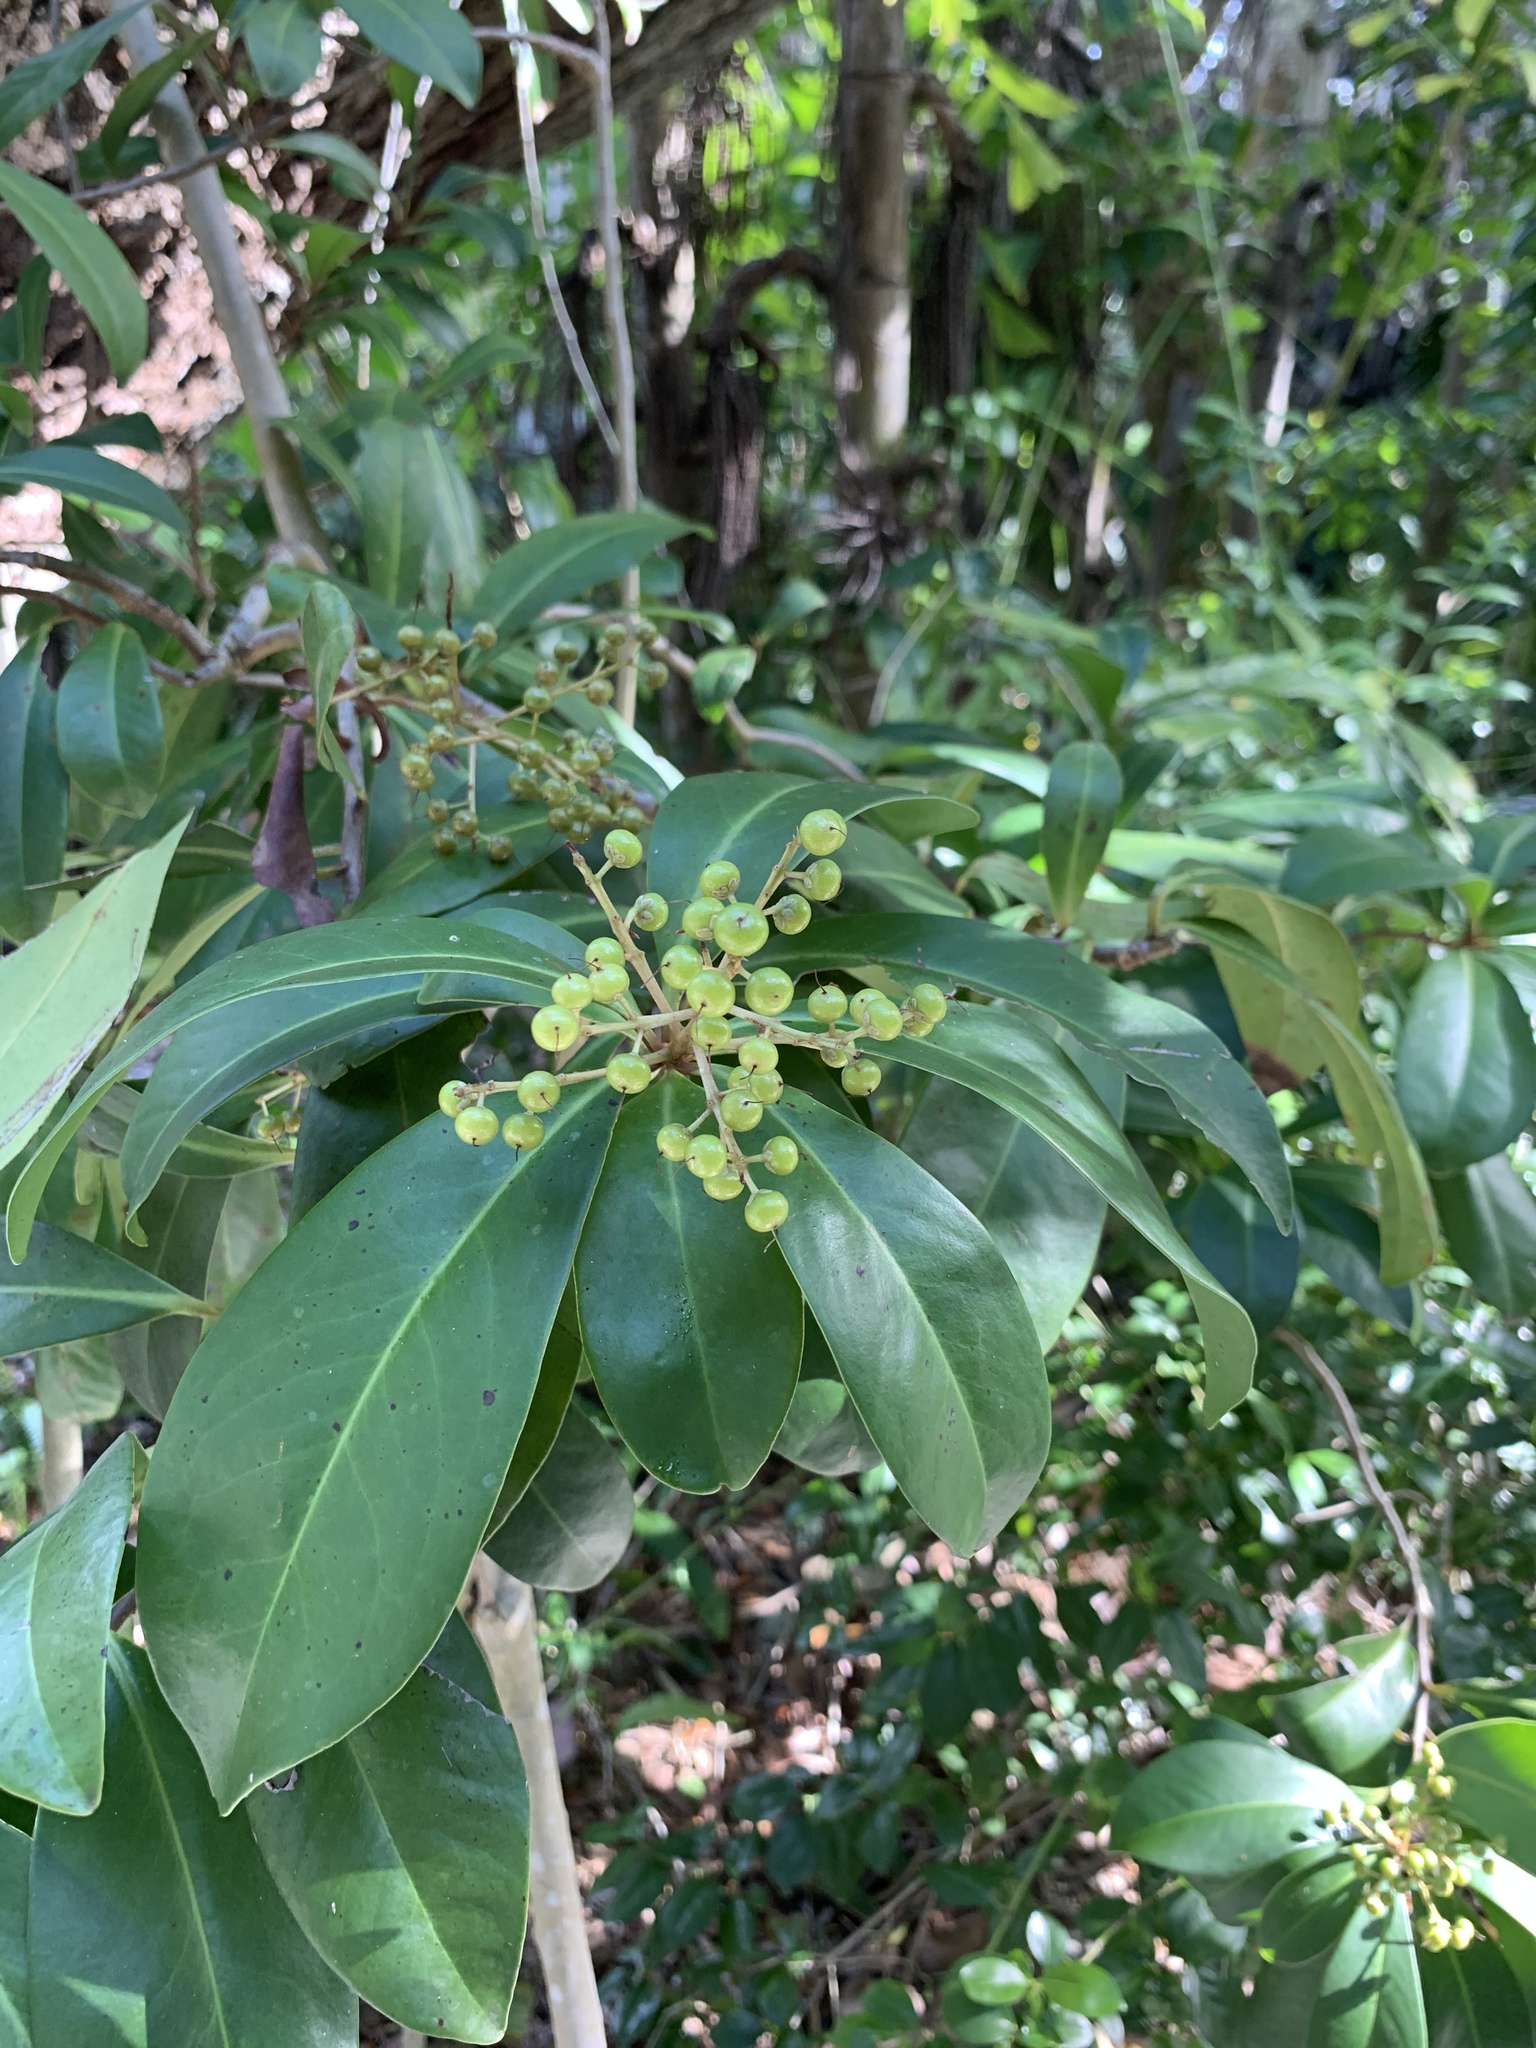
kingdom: Plantae
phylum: Tracheophyta
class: Magnoliopsida
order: Ericales
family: Primulaceae
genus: Ardisia
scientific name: Ardisia escallonioides
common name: Island marlberry
